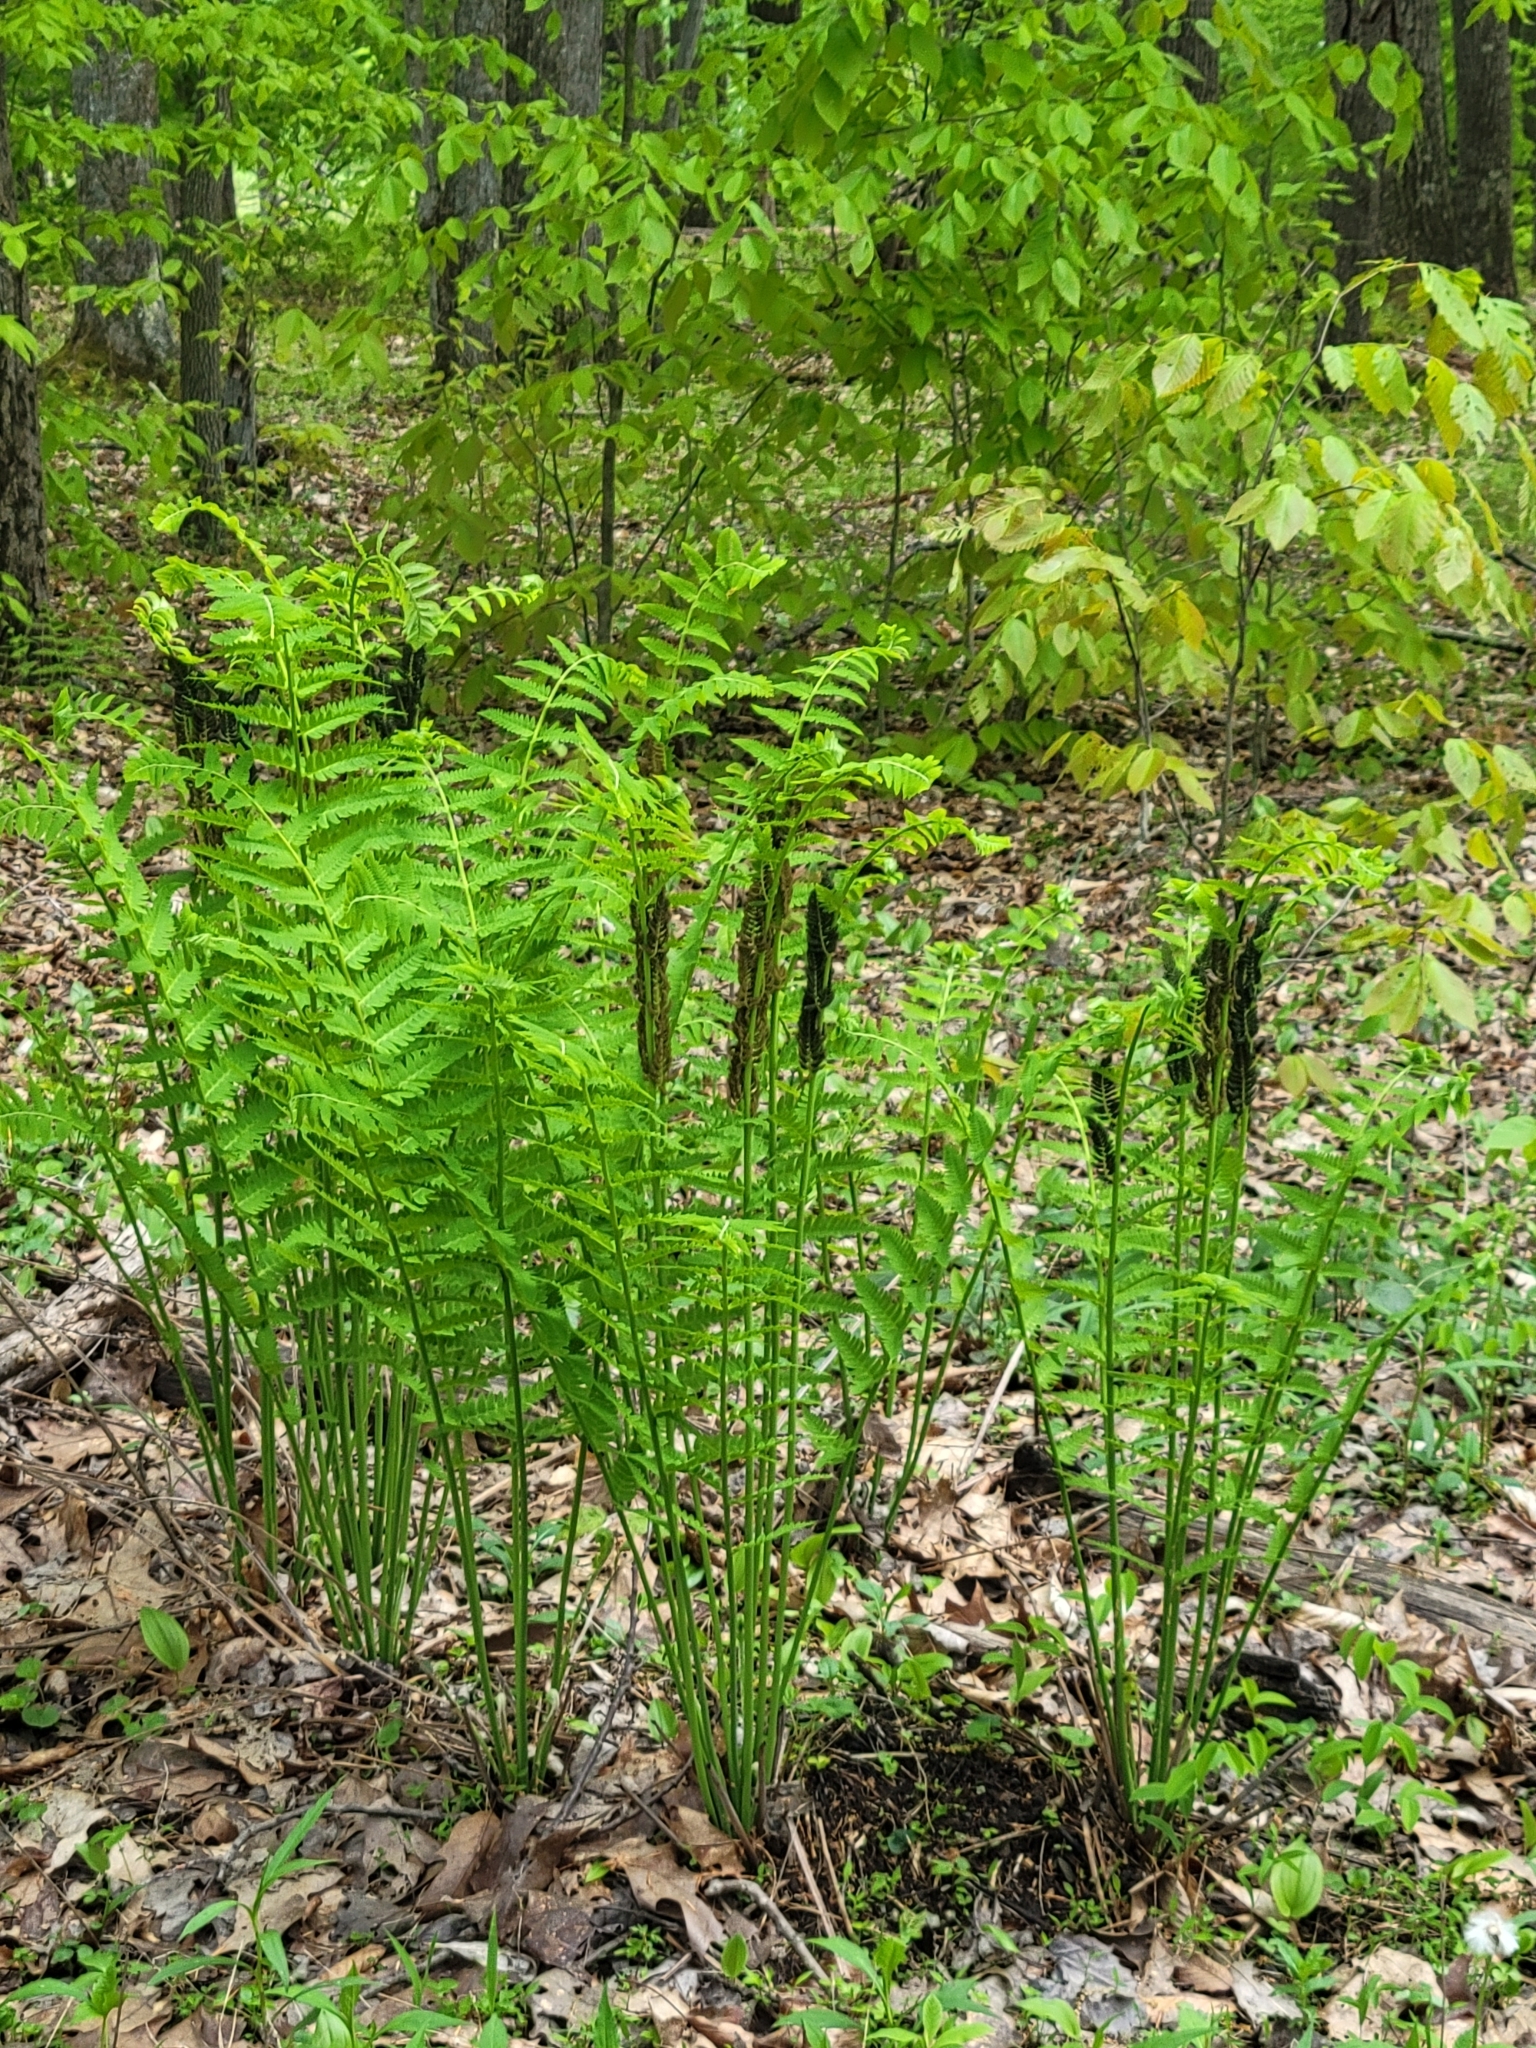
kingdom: Plantae
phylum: Tracheophyta
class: Polypodiopsida
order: Osmundales
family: Osmundaceae
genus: Claytosmunda
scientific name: Claytosmunda claytoniana
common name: Clayton's fern
